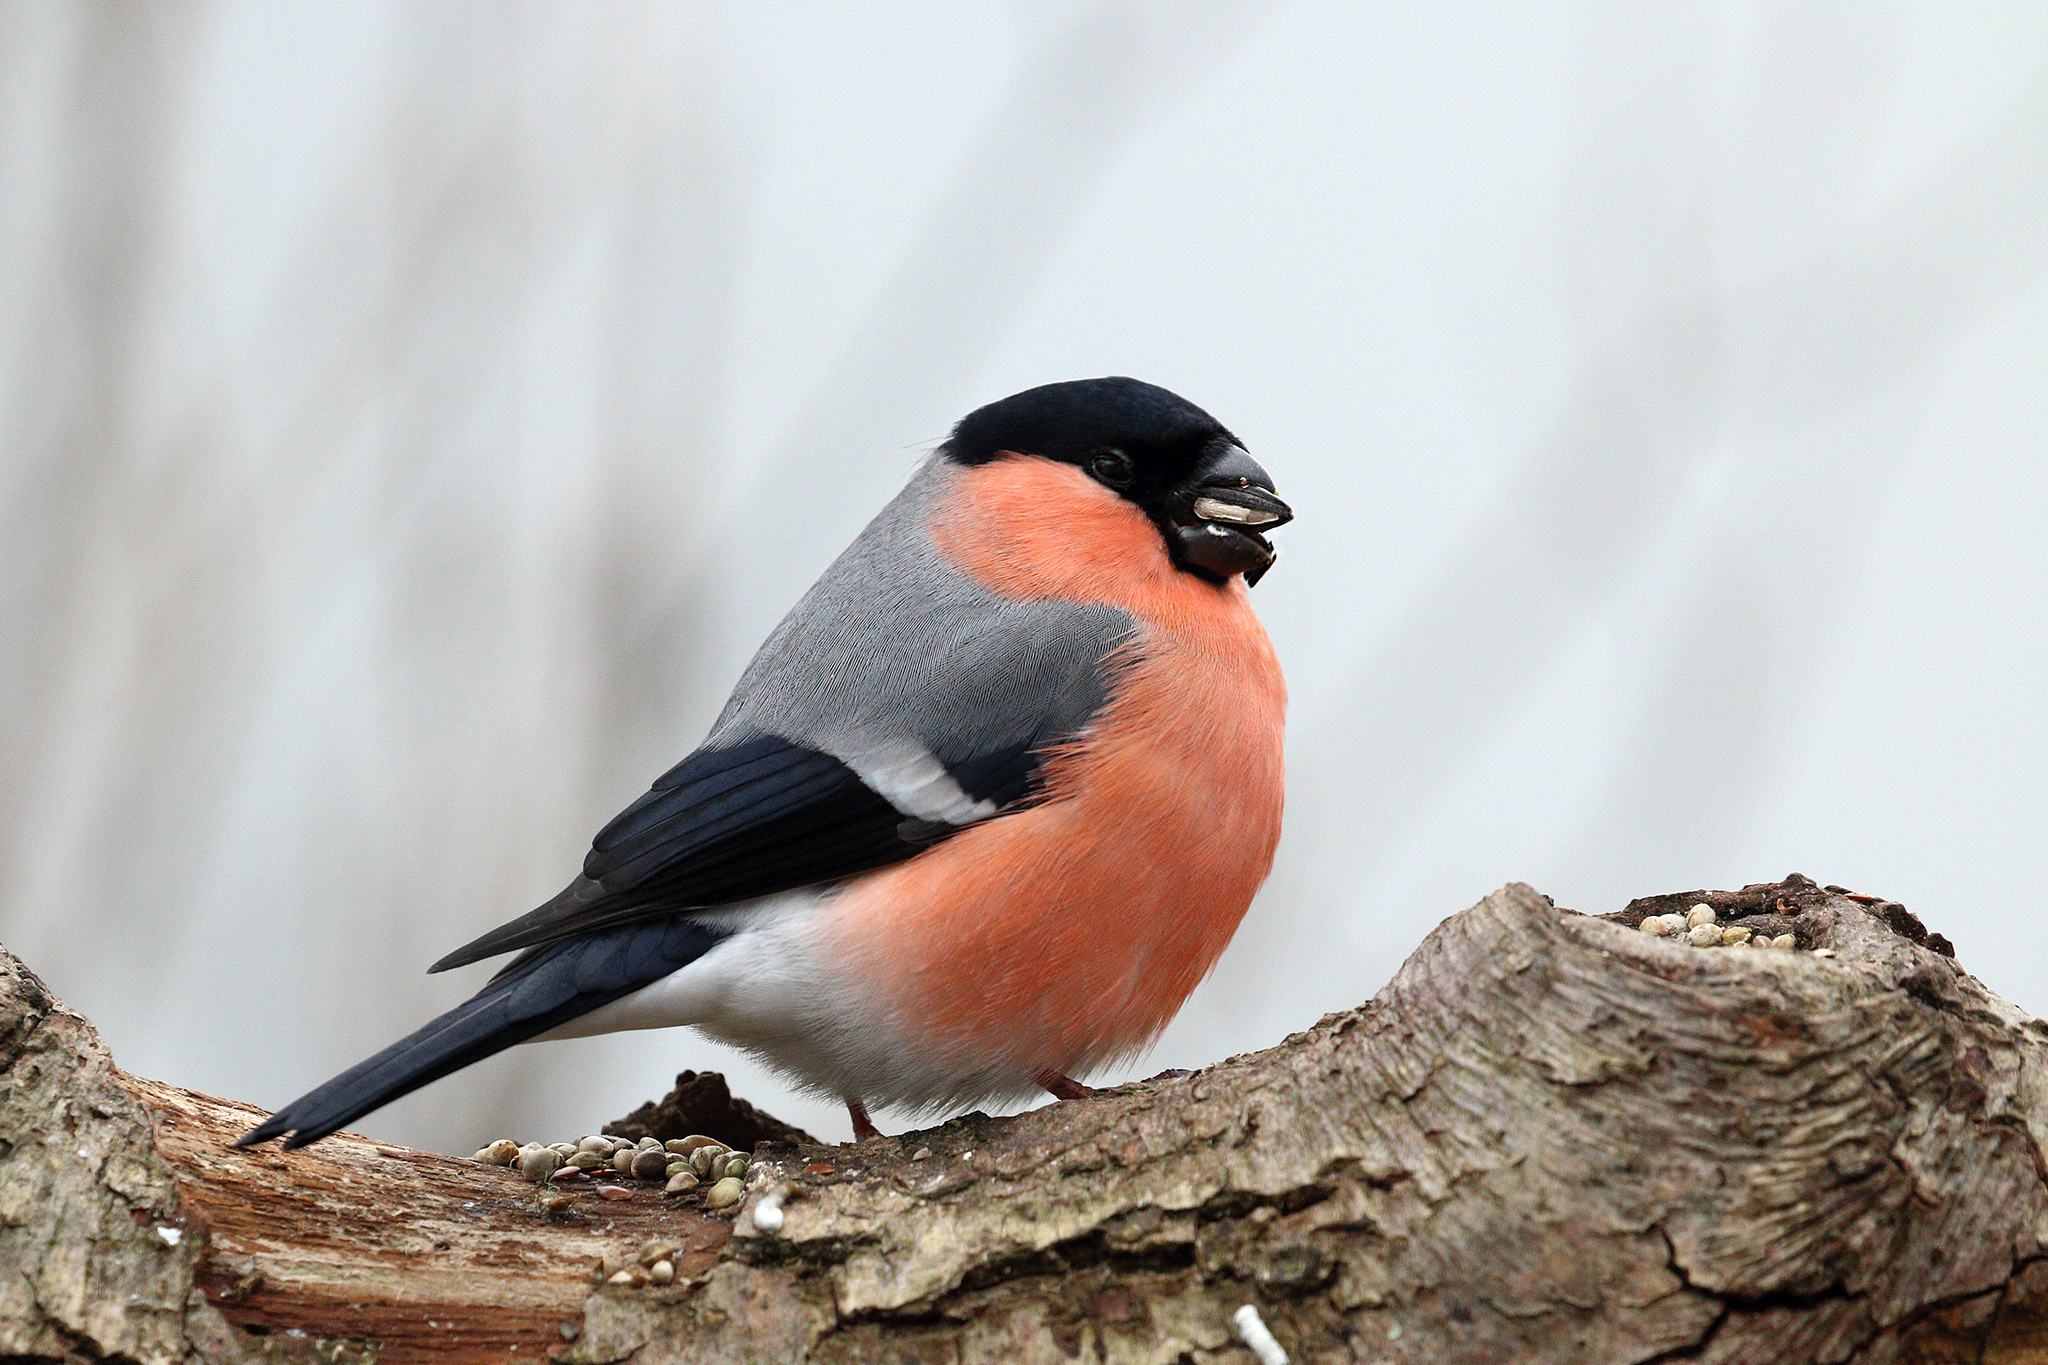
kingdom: Animalia
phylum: Chordata
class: Aves
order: Passeriformes
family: Fringillidae
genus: Pyrrhula
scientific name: Pyrrhula pyrrhula
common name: Eurasian bullfinch
